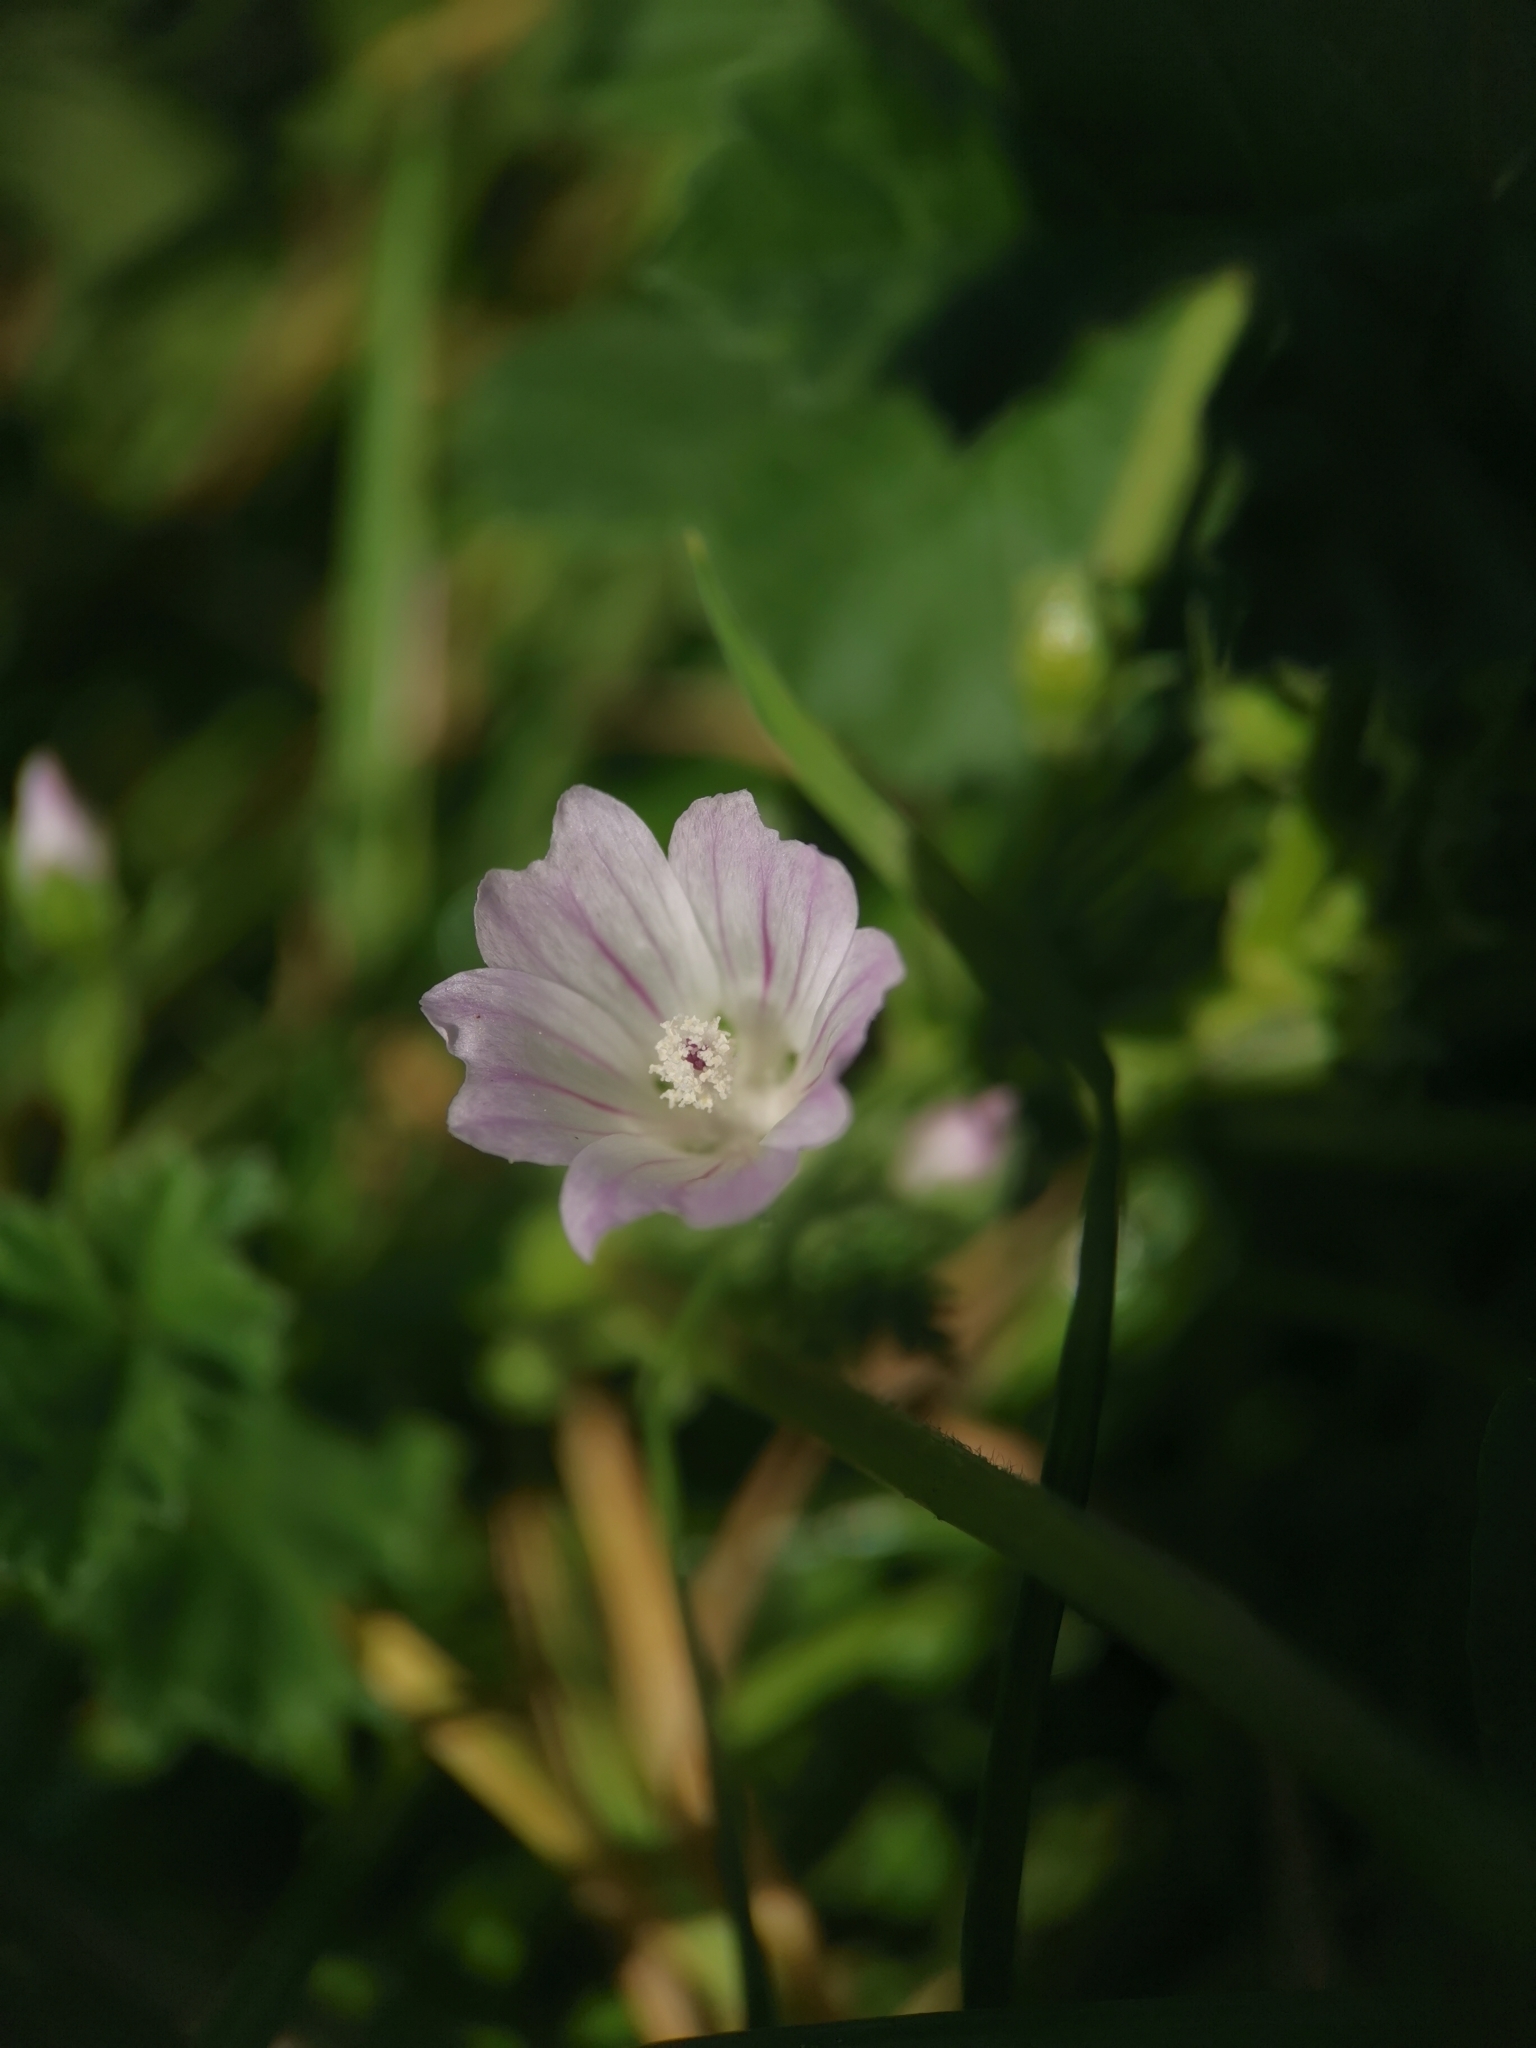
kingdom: Plantae
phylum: Tracheophyta
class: Magnoliopsida
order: Malvales
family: Malvaceae
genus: Malva
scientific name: Malva neglecta
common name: Common mallow
